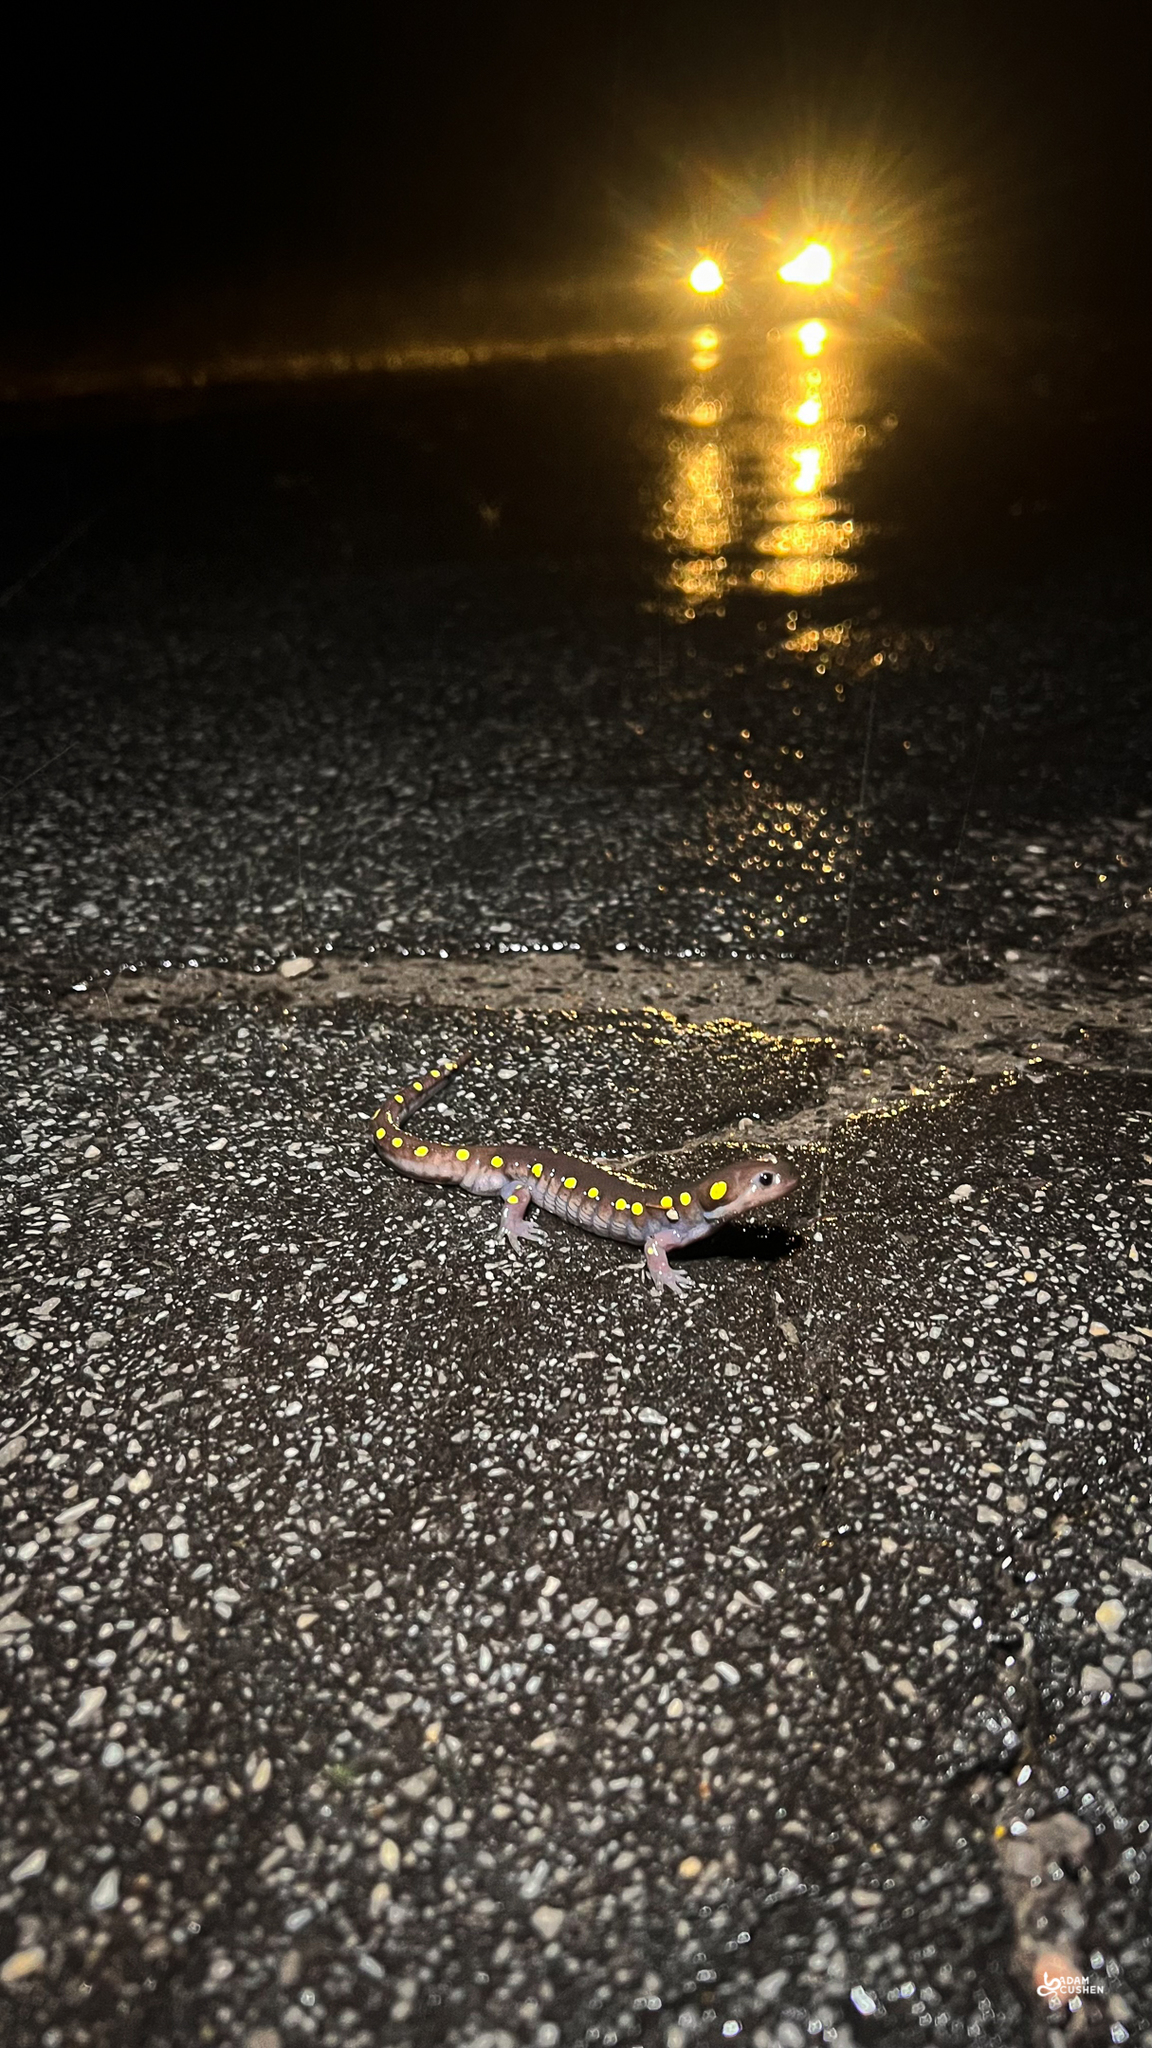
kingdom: Animalia
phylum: Chordata
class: Amphibia
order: Caudata
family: Ambystomatidae
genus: Ambystoma
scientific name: Ambystoma maculatum
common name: Spotted salamander
